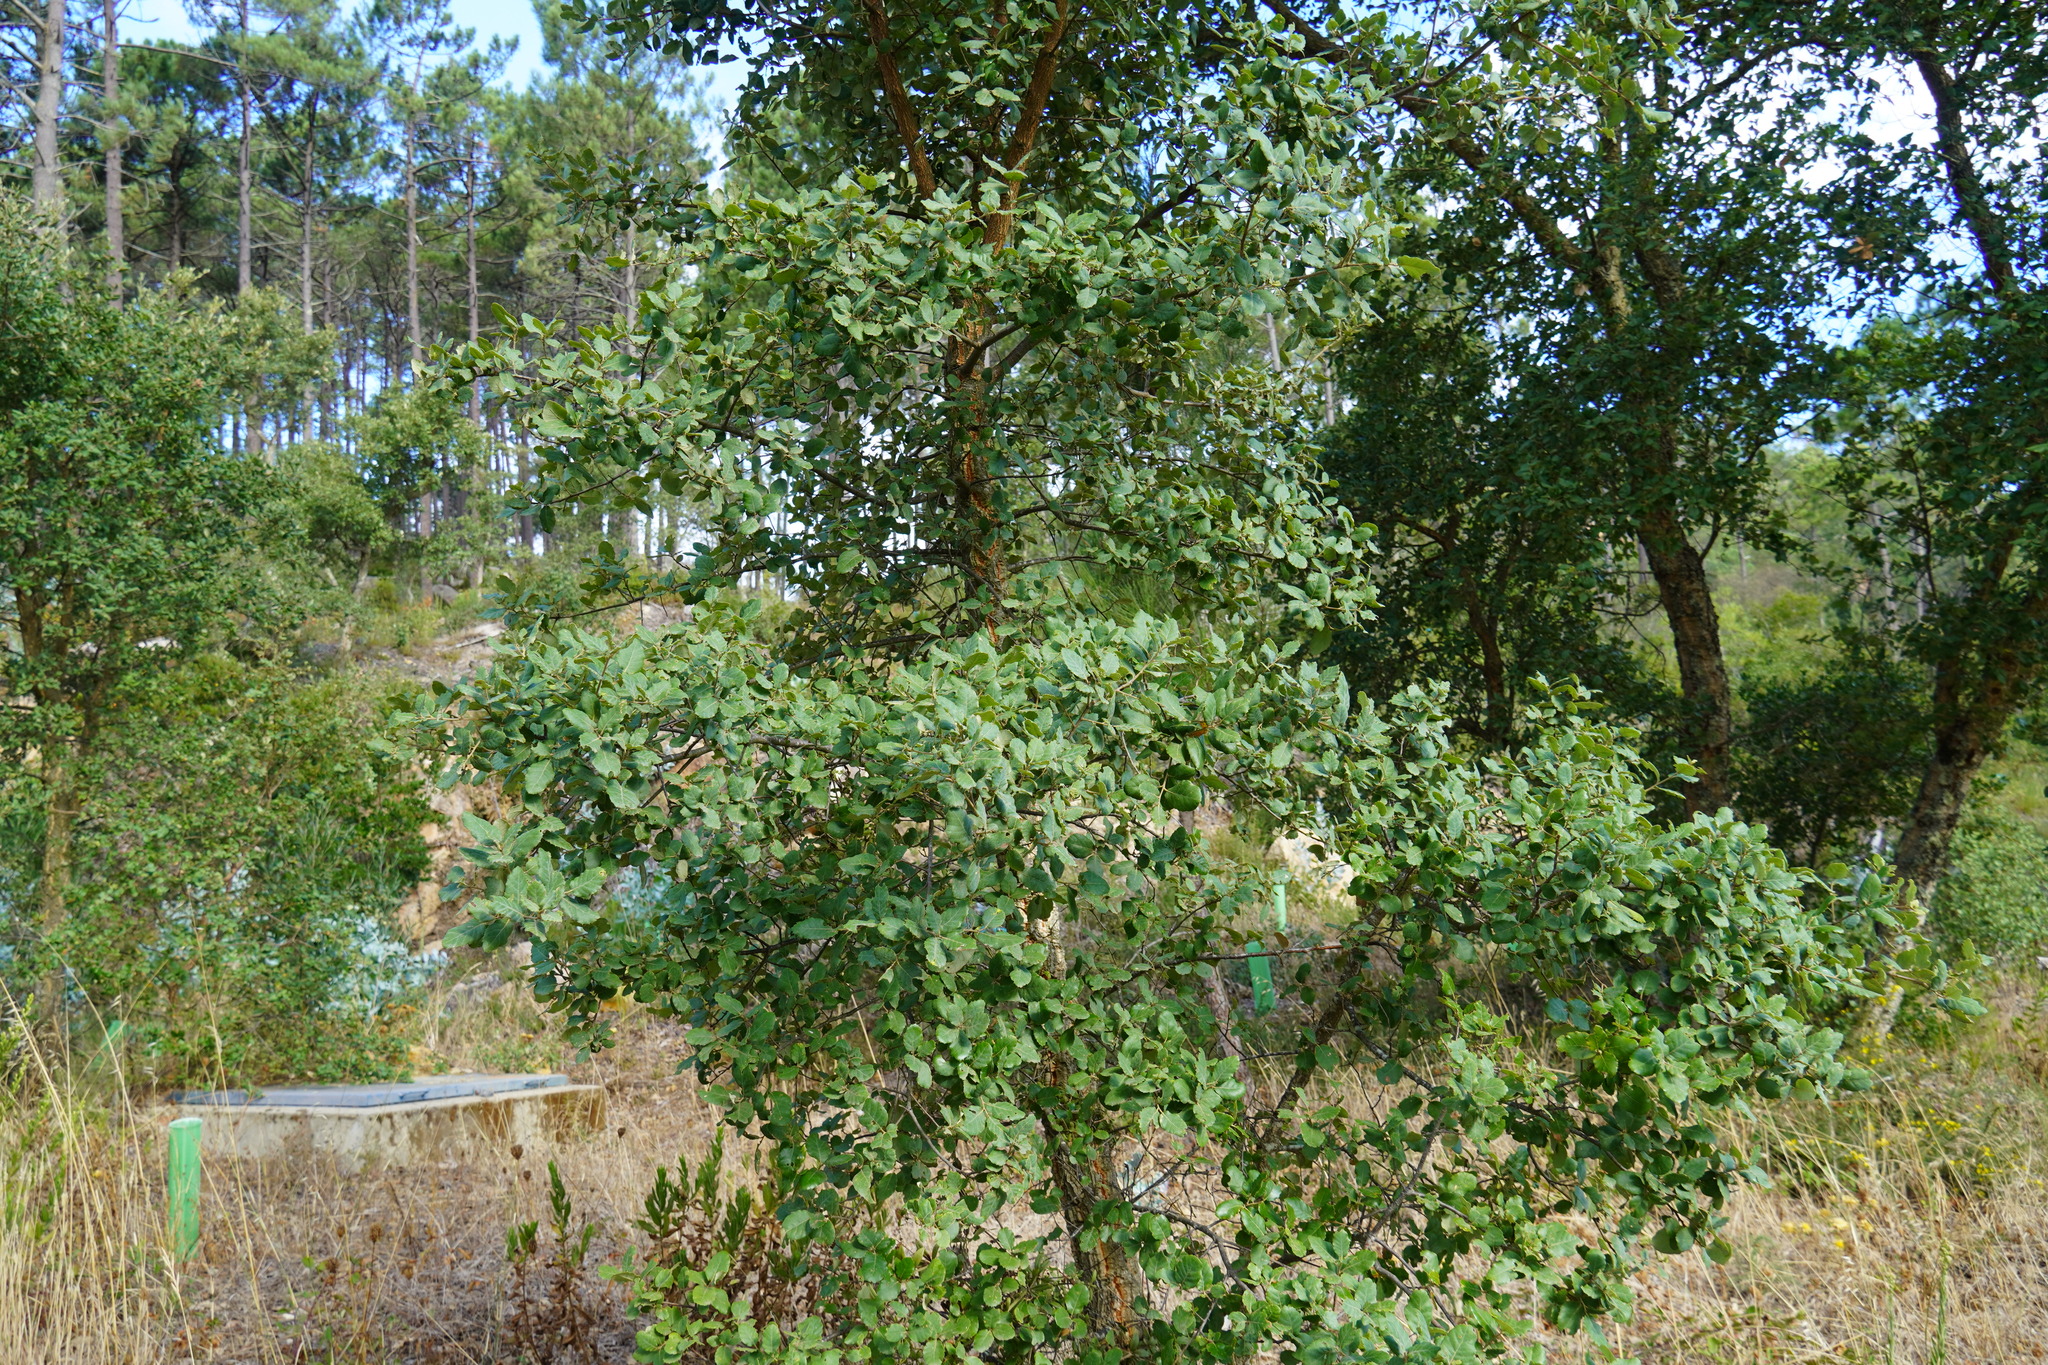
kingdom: Plantae
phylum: Tracheophyta
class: Magnoliopsida
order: Fagales
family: Fagaceae
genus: Quercus
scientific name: Quercus suber
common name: Cork oak
